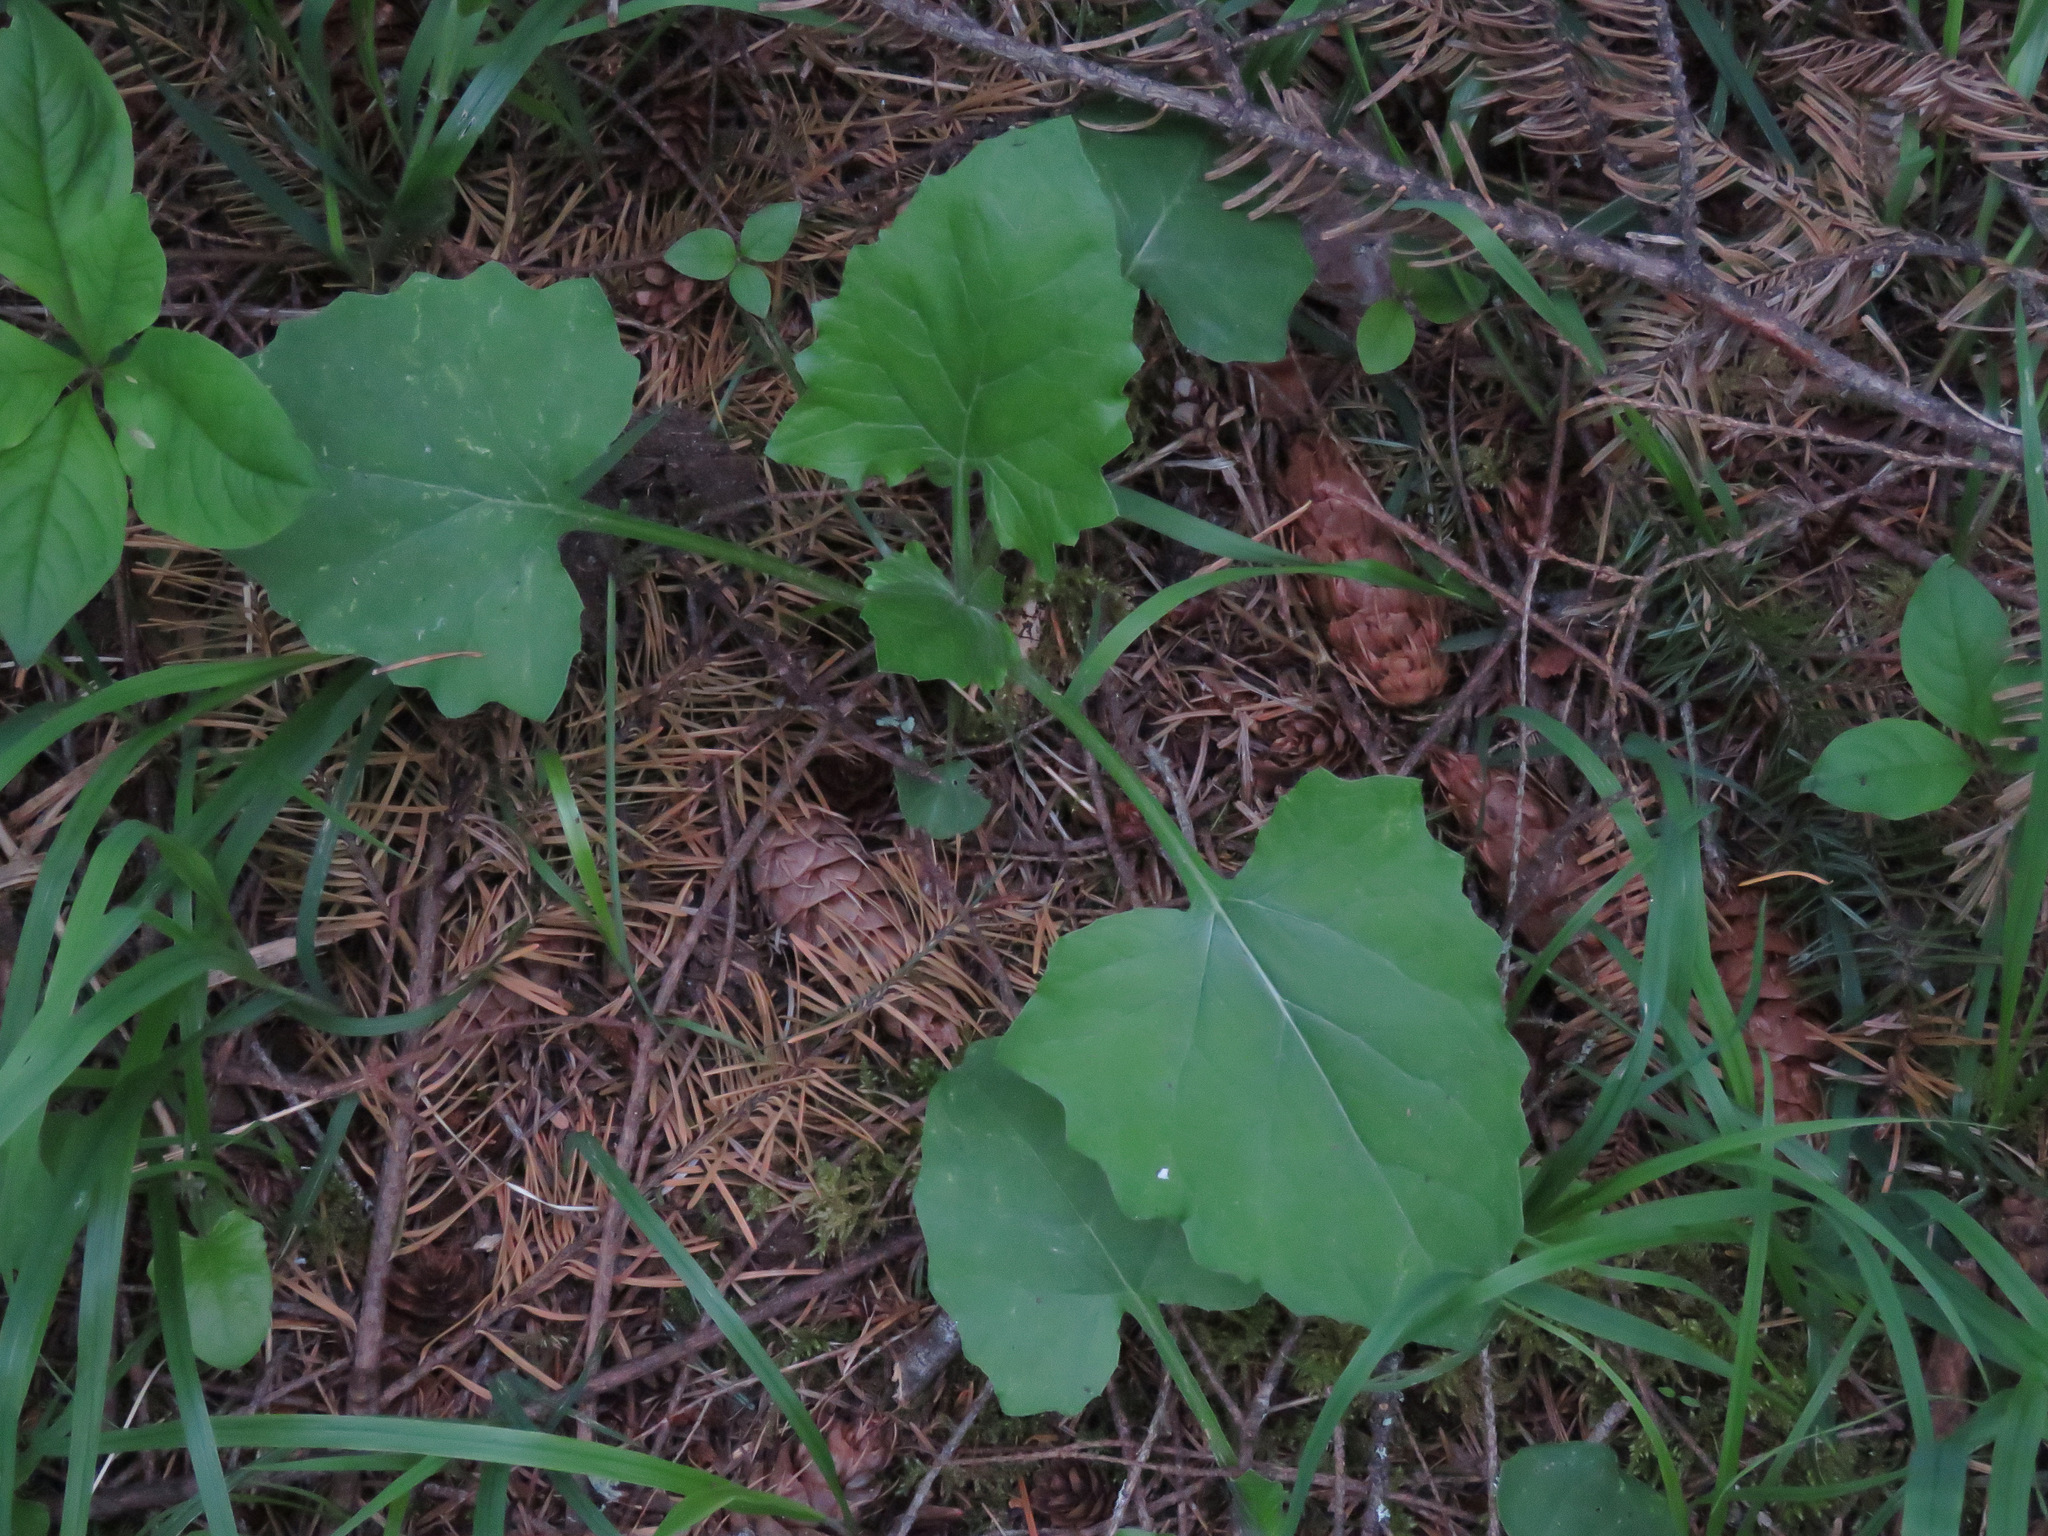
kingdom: Plantae
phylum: Tracheophyta
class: Magnoliopsida
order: Asterales
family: Asteraceae
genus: Adenocaulon
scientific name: Adenocaulon bicolor
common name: Trailplant
